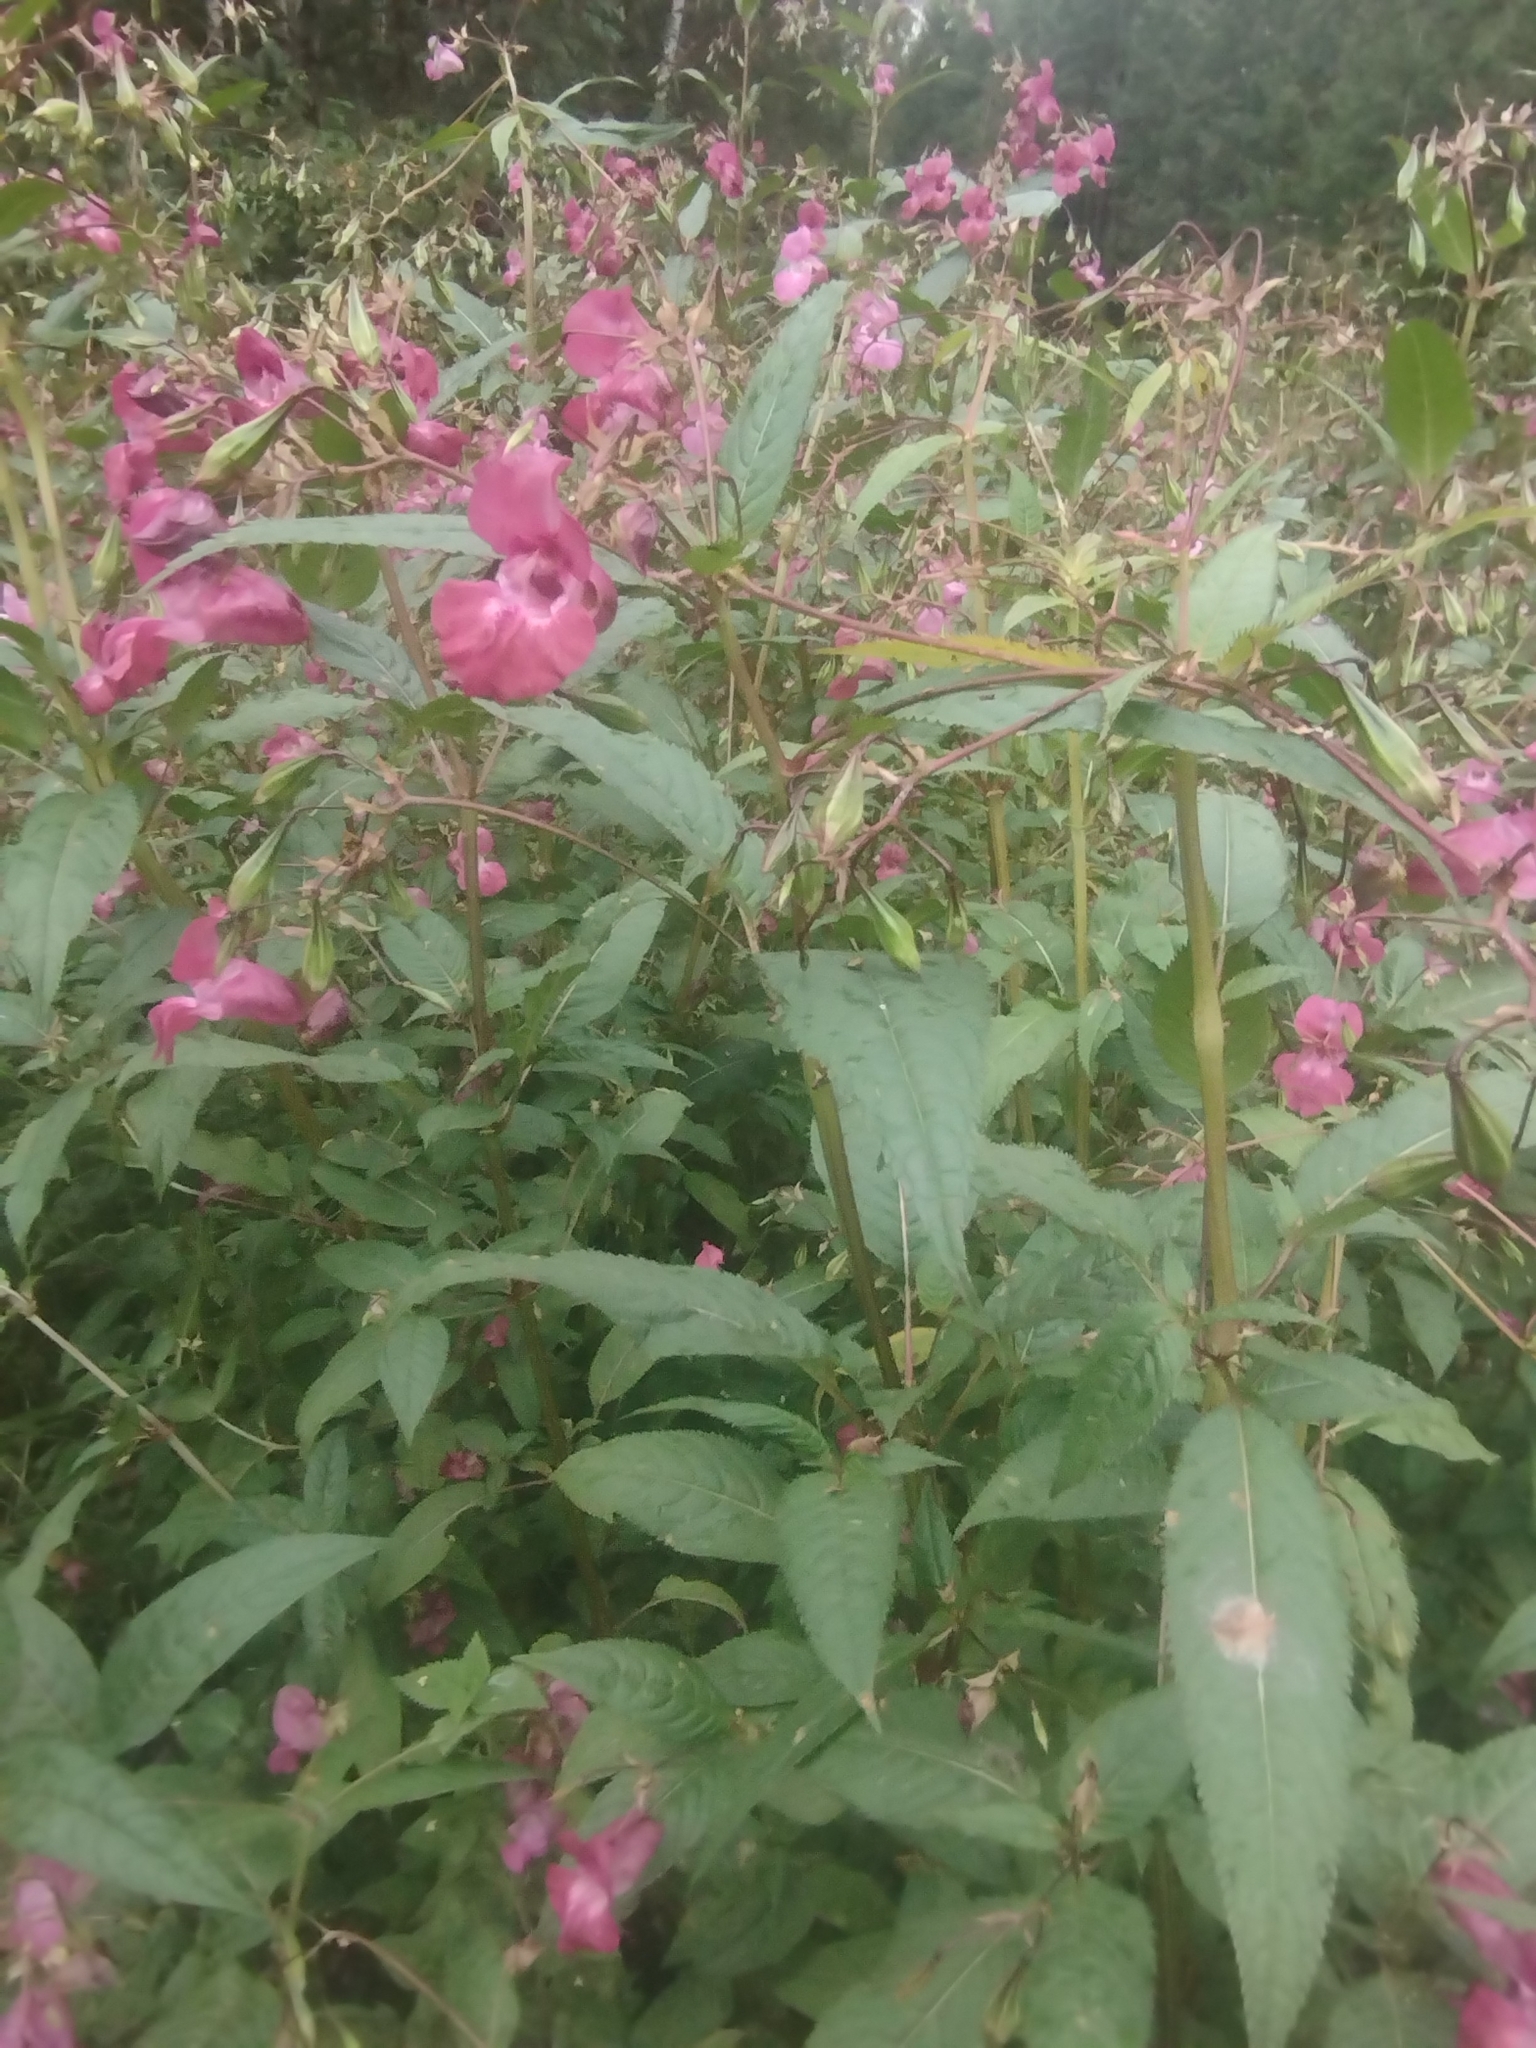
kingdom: Plantae
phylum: Tracheophyta
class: Magnoliopsida
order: Ericales
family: Balsaminaceae
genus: Impatiens
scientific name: Impatiens glandulifera
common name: Himalayan balsam
